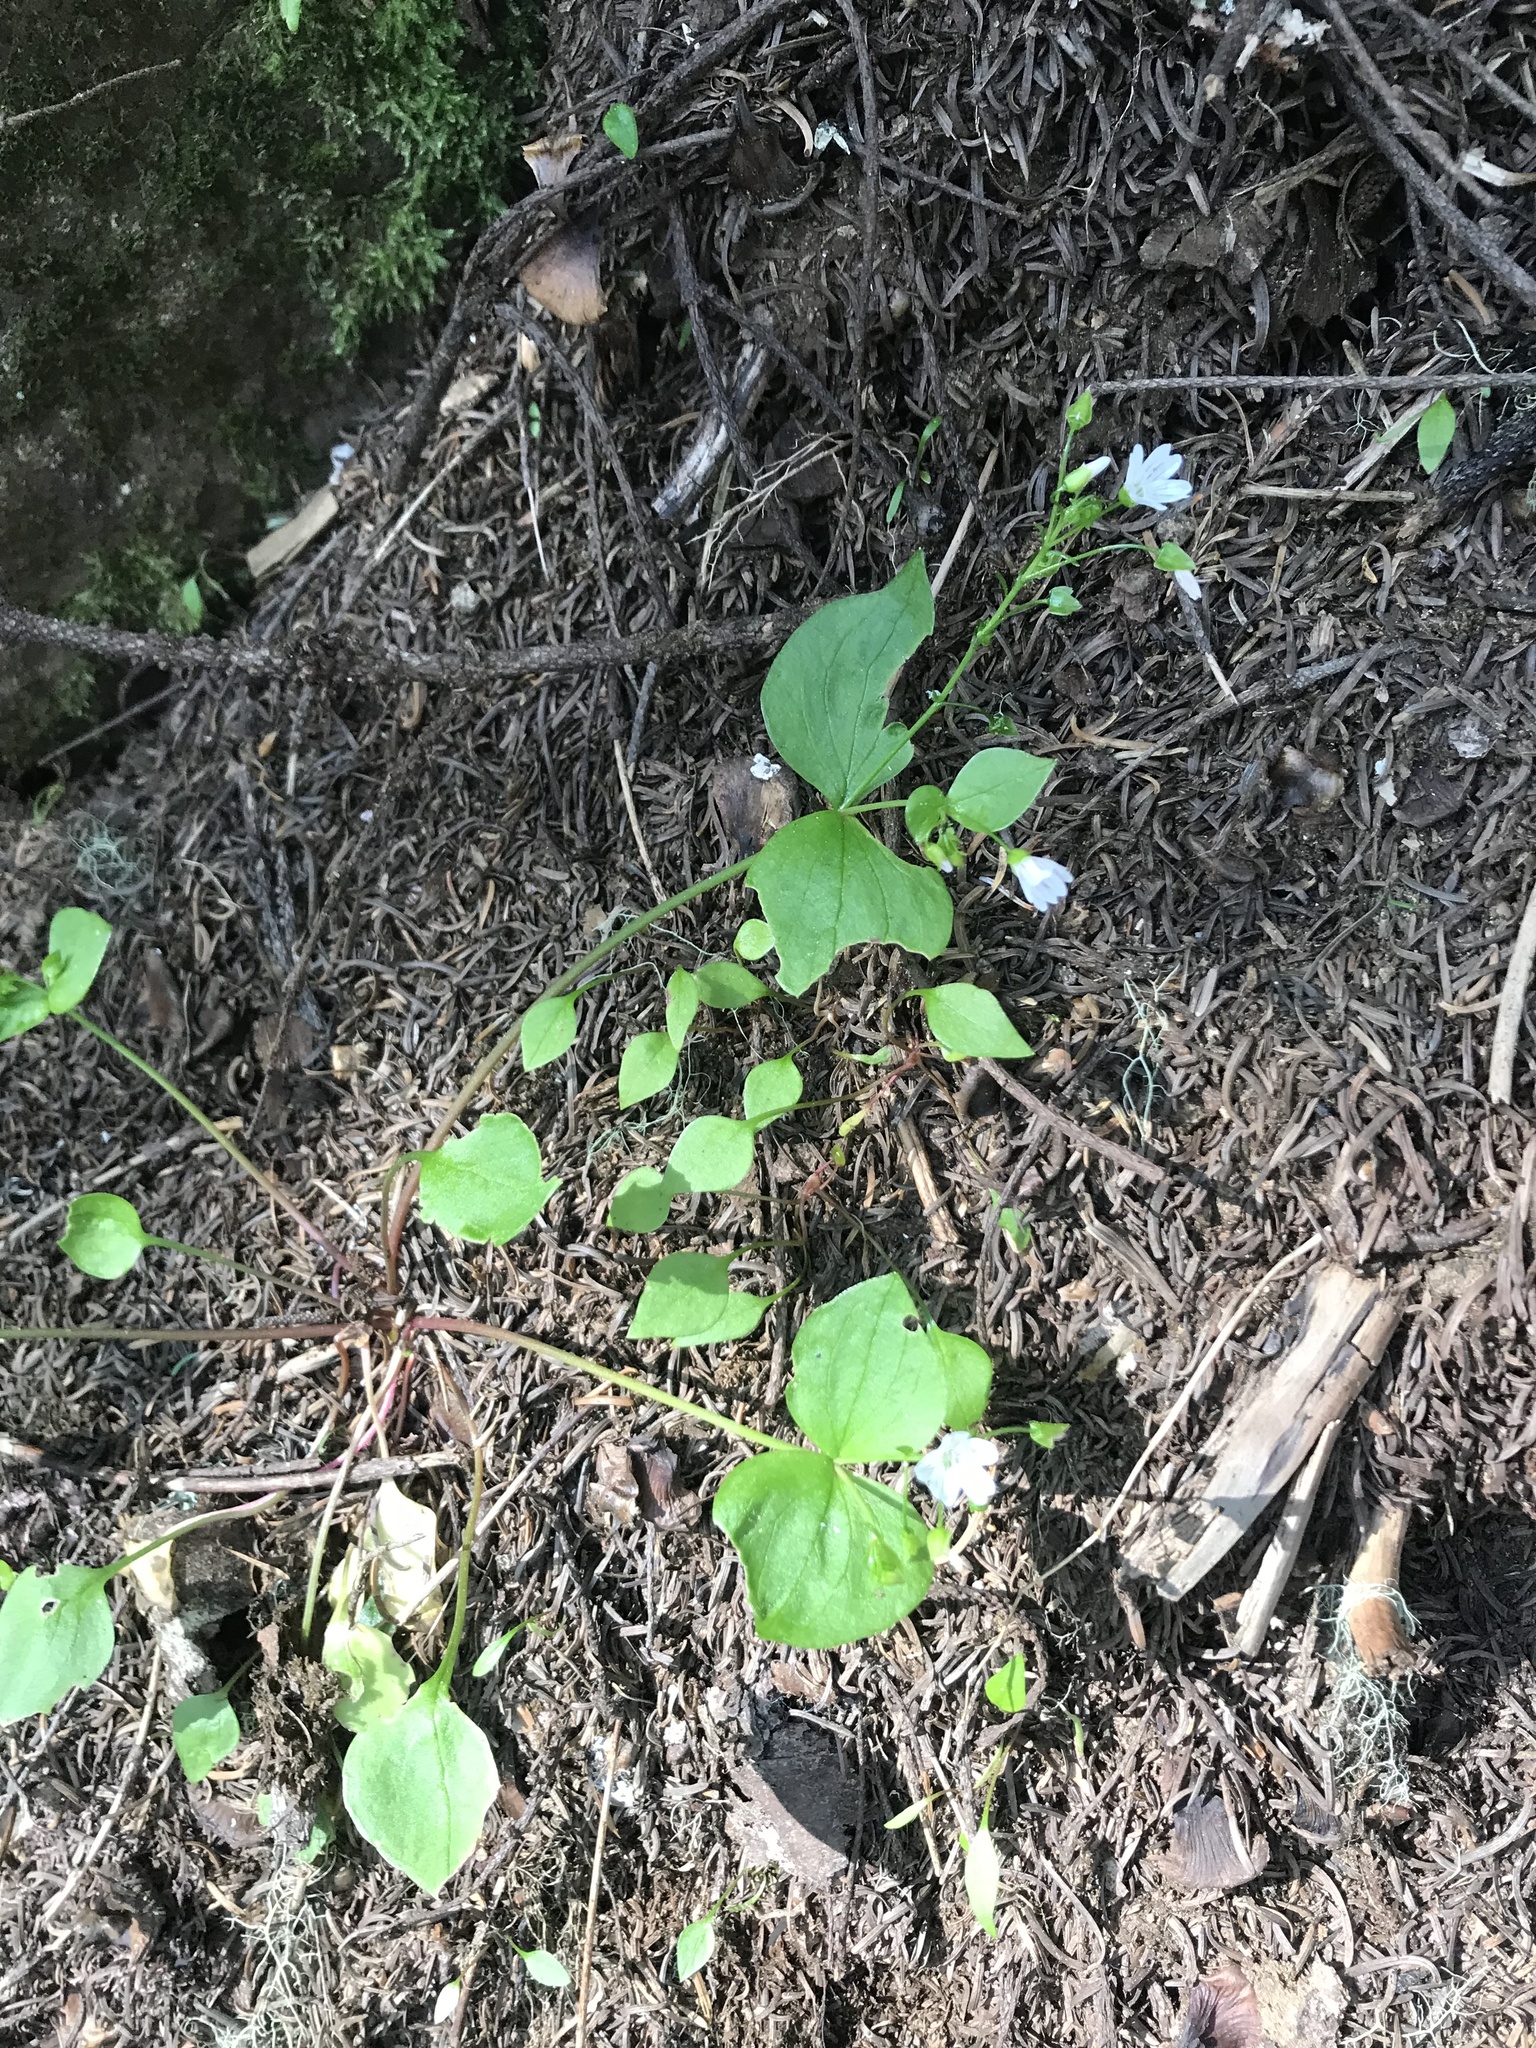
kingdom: Plantae
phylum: Tracheophyta
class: Magnoliopsida
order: Caryophyllales
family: Montiaceae
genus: Claytonia
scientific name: Claytonia sibirica
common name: Pink purslane
